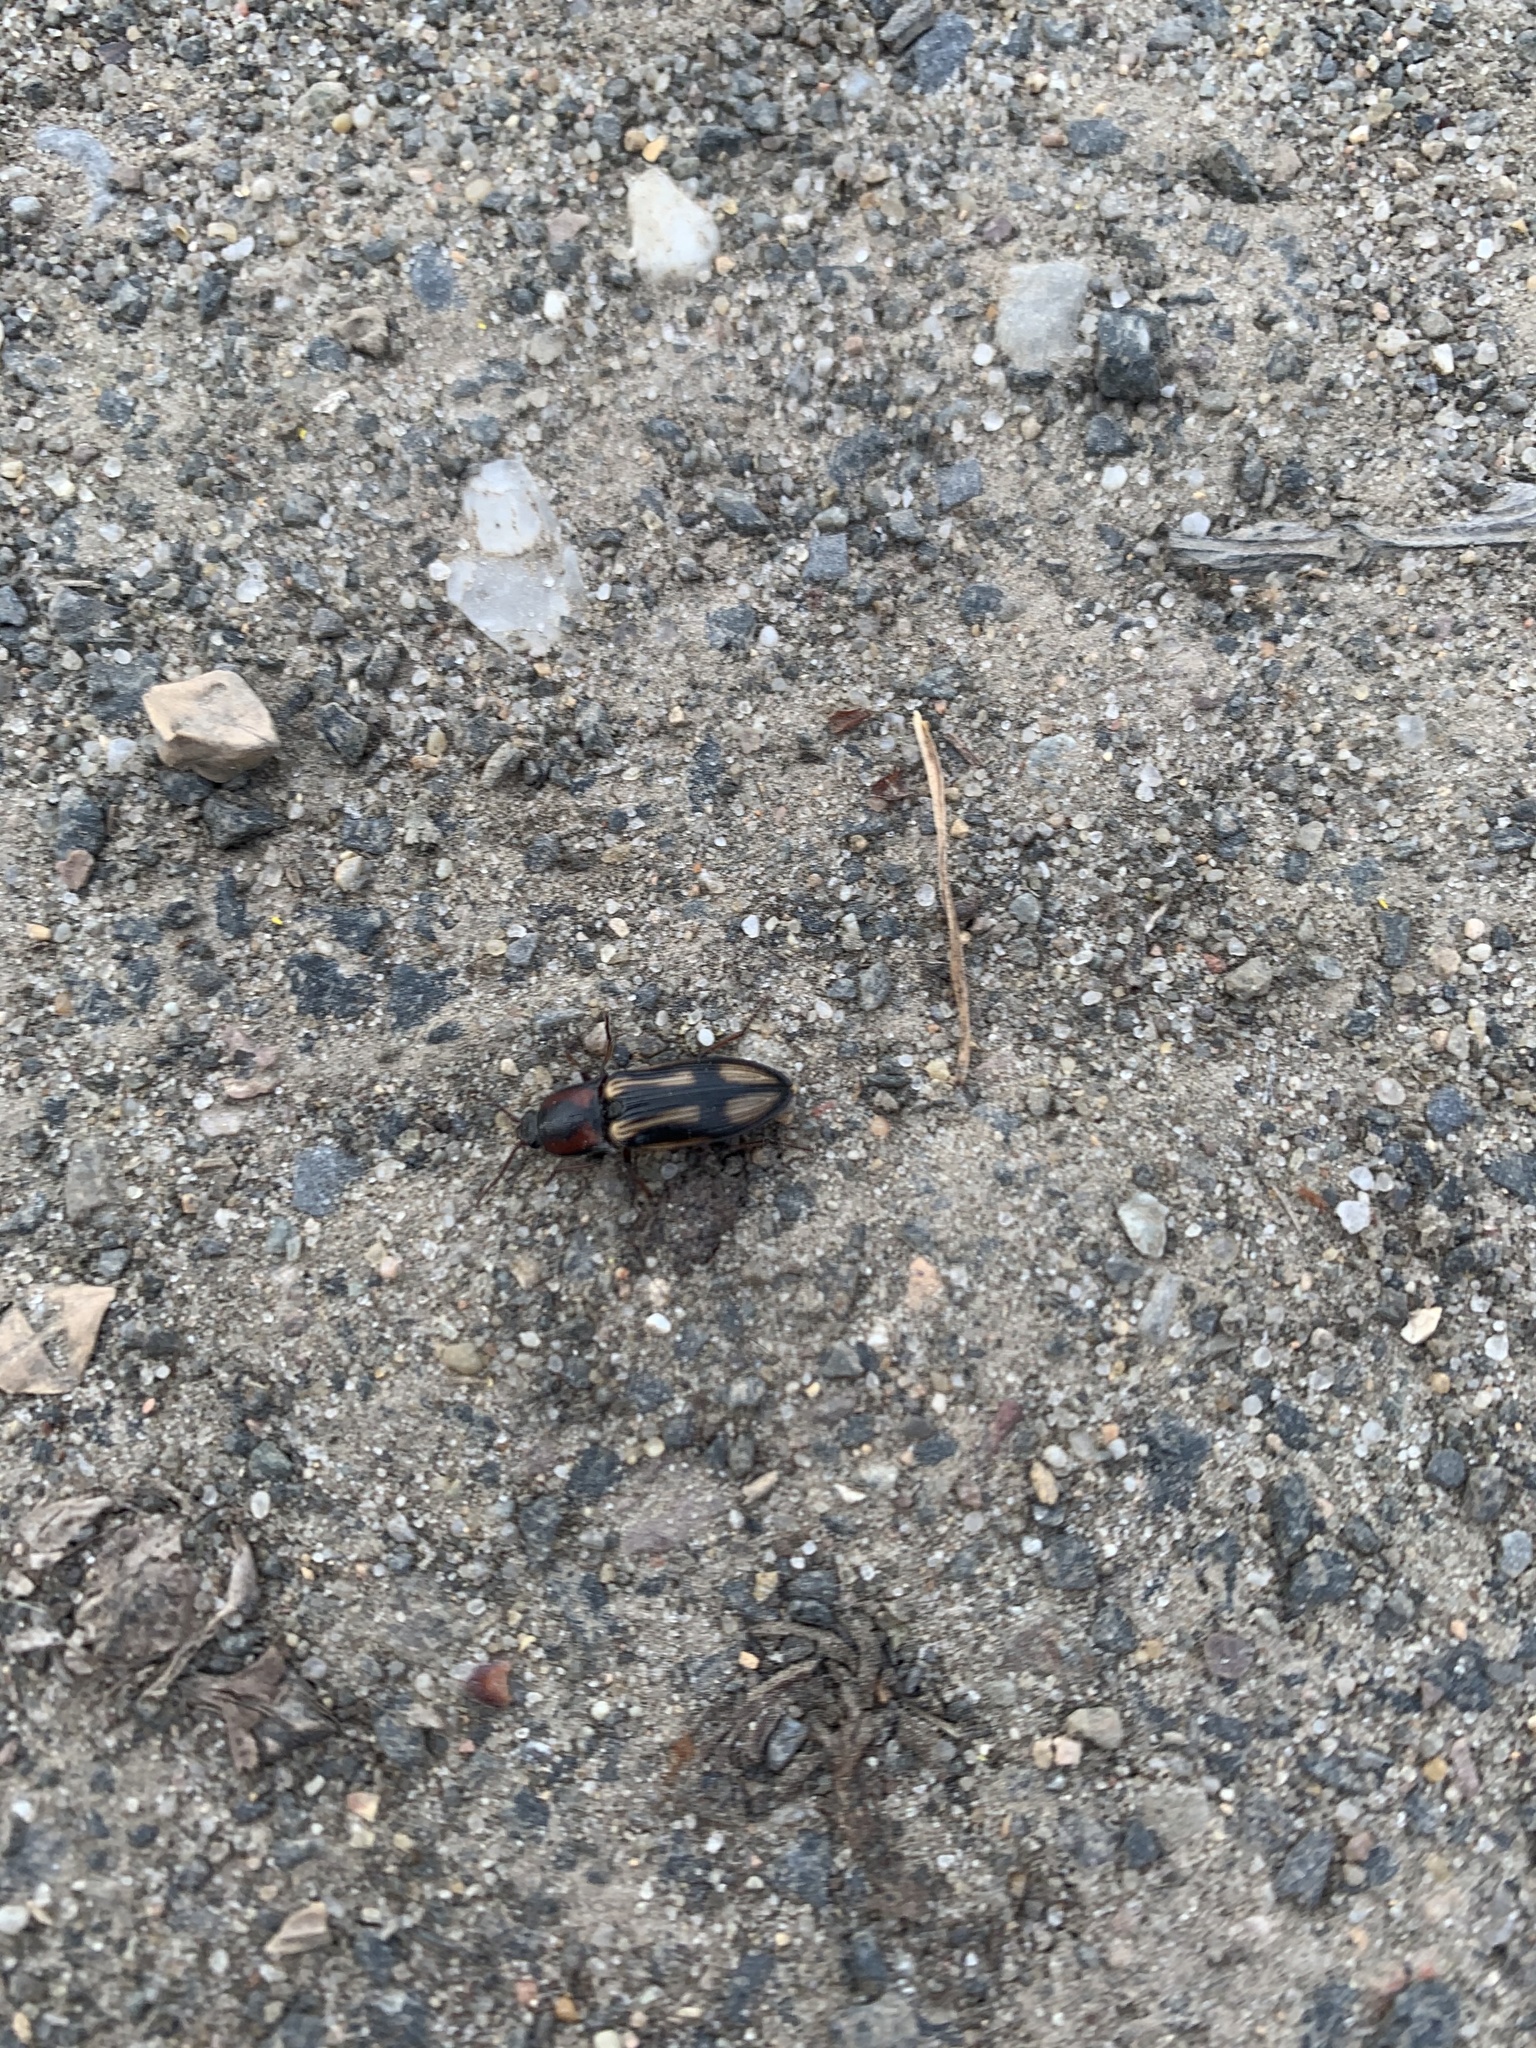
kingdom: Animalia
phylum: Arthropoda
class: Insecta
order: Coleoptera
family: Elateridae
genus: Selatosomus
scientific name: Selatosomus cruciatus
